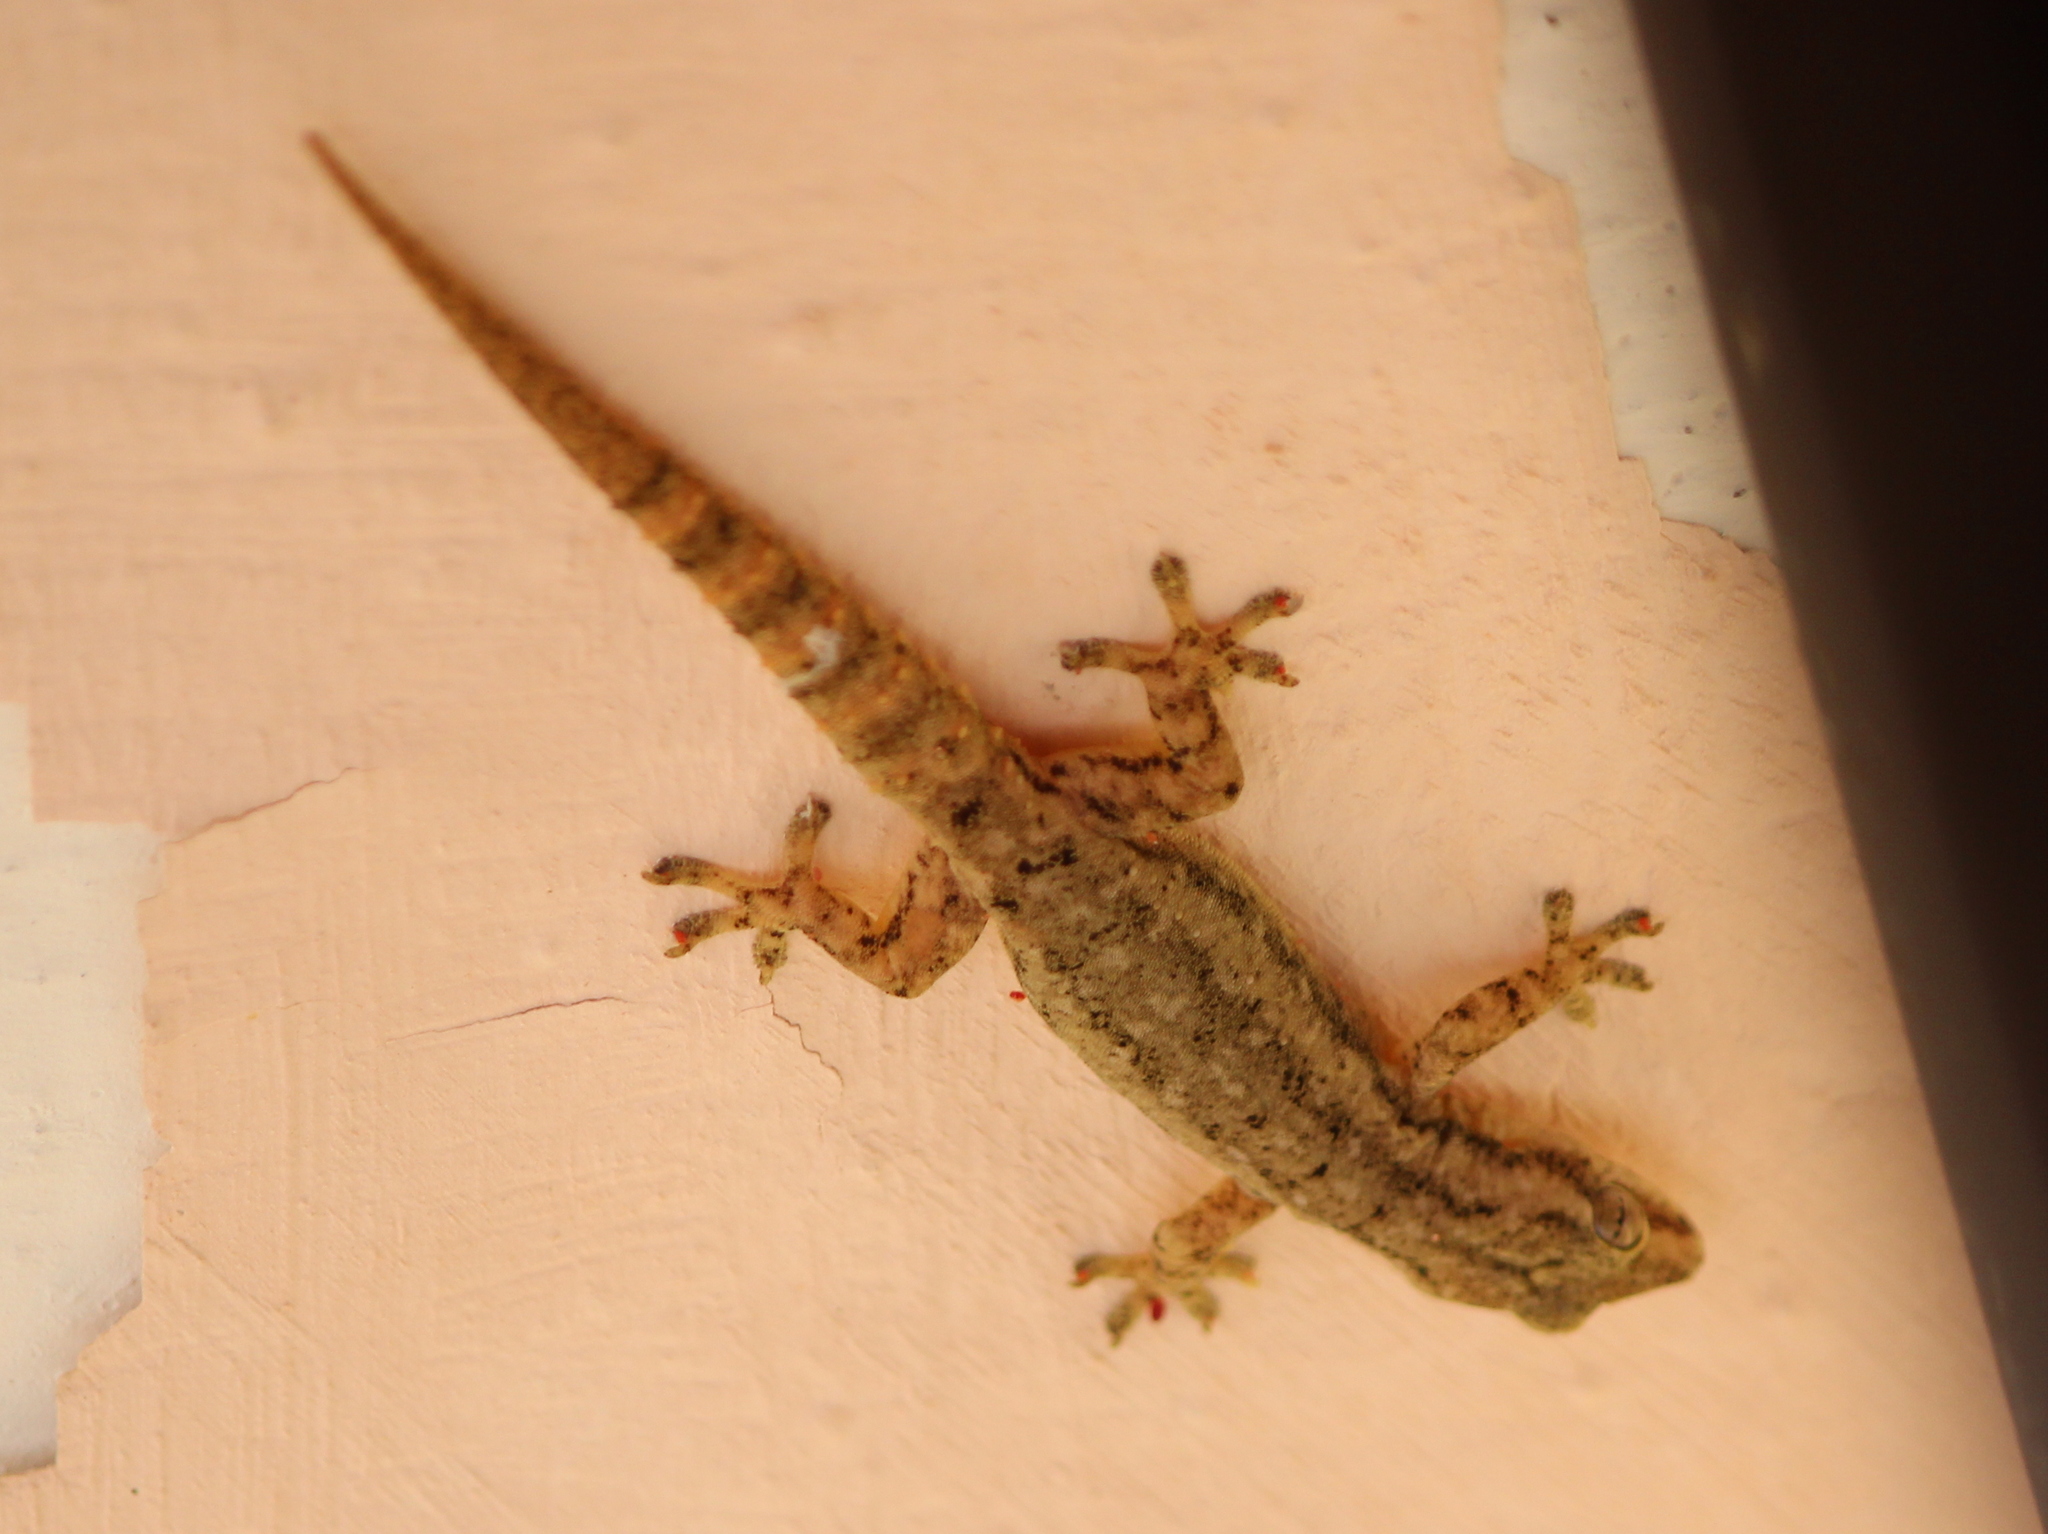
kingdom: Animalia
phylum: Chordata
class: Squamata
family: Gekkonidae
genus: Hemidactylus
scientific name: Hemidactylus frenatus
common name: Common house gecko
